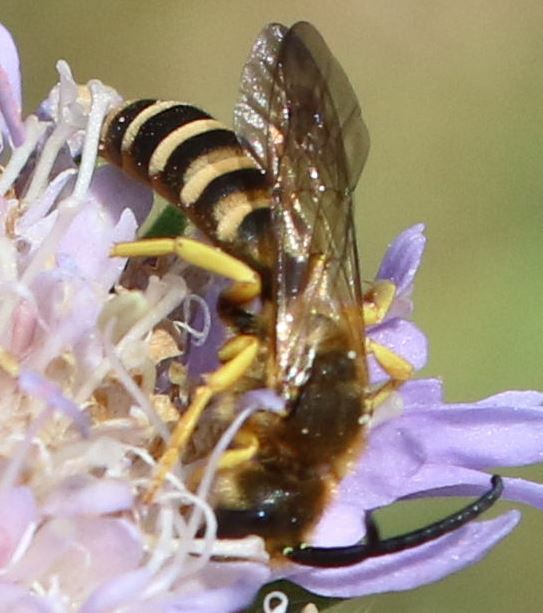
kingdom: Animalia
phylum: Arthropoda
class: Insecta
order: Hymenoptera
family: Halictidae
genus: Halictus
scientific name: Halictus scabiosae
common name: Great banded furrow bee
